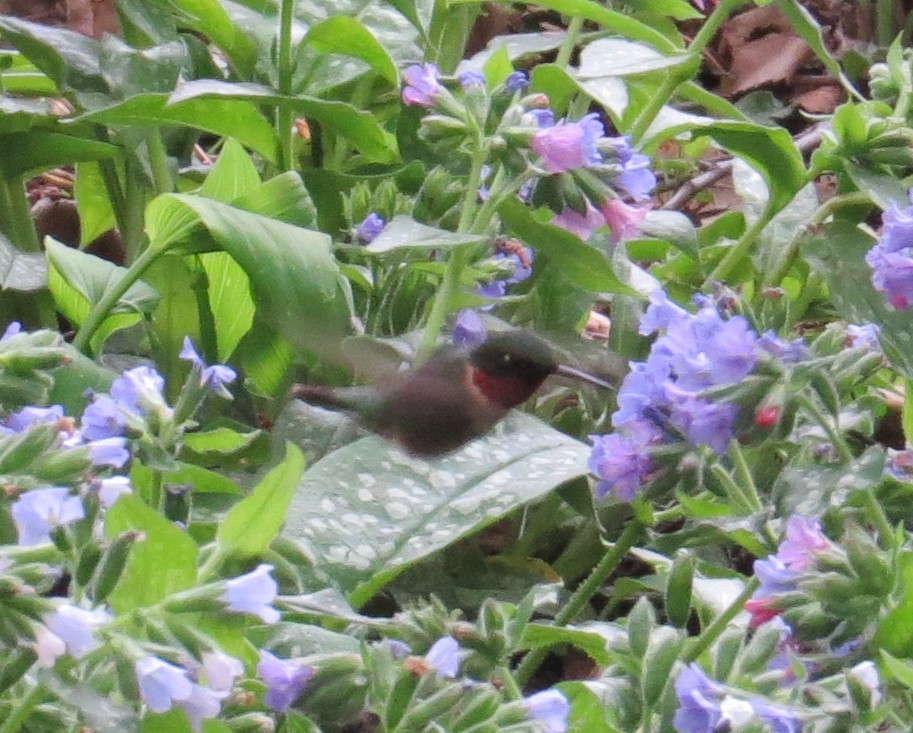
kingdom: Animalia
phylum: Chordata
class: Aves
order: Apodiformes
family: Trochilidae
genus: Archilochus
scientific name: Archilochus colubris
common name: Ruby-throated hummingbird
